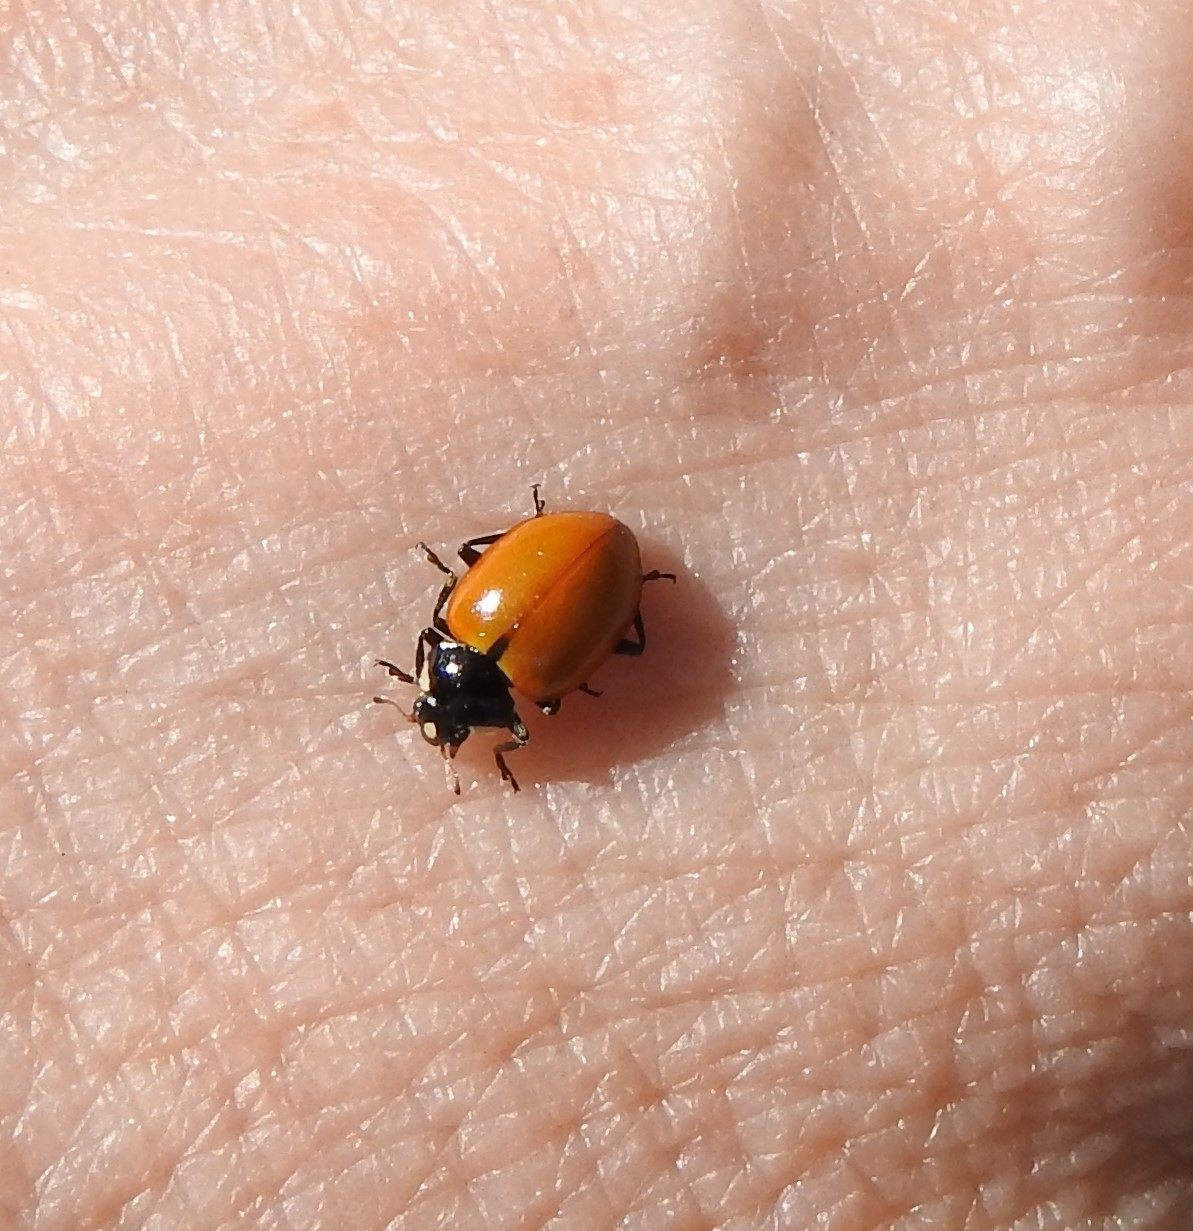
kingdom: Animalia
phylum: Arthropoda
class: Insecta
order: Coleoptera
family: Coccinellidae
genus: Hippodamia
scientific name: Hippodamia quinquesignata
